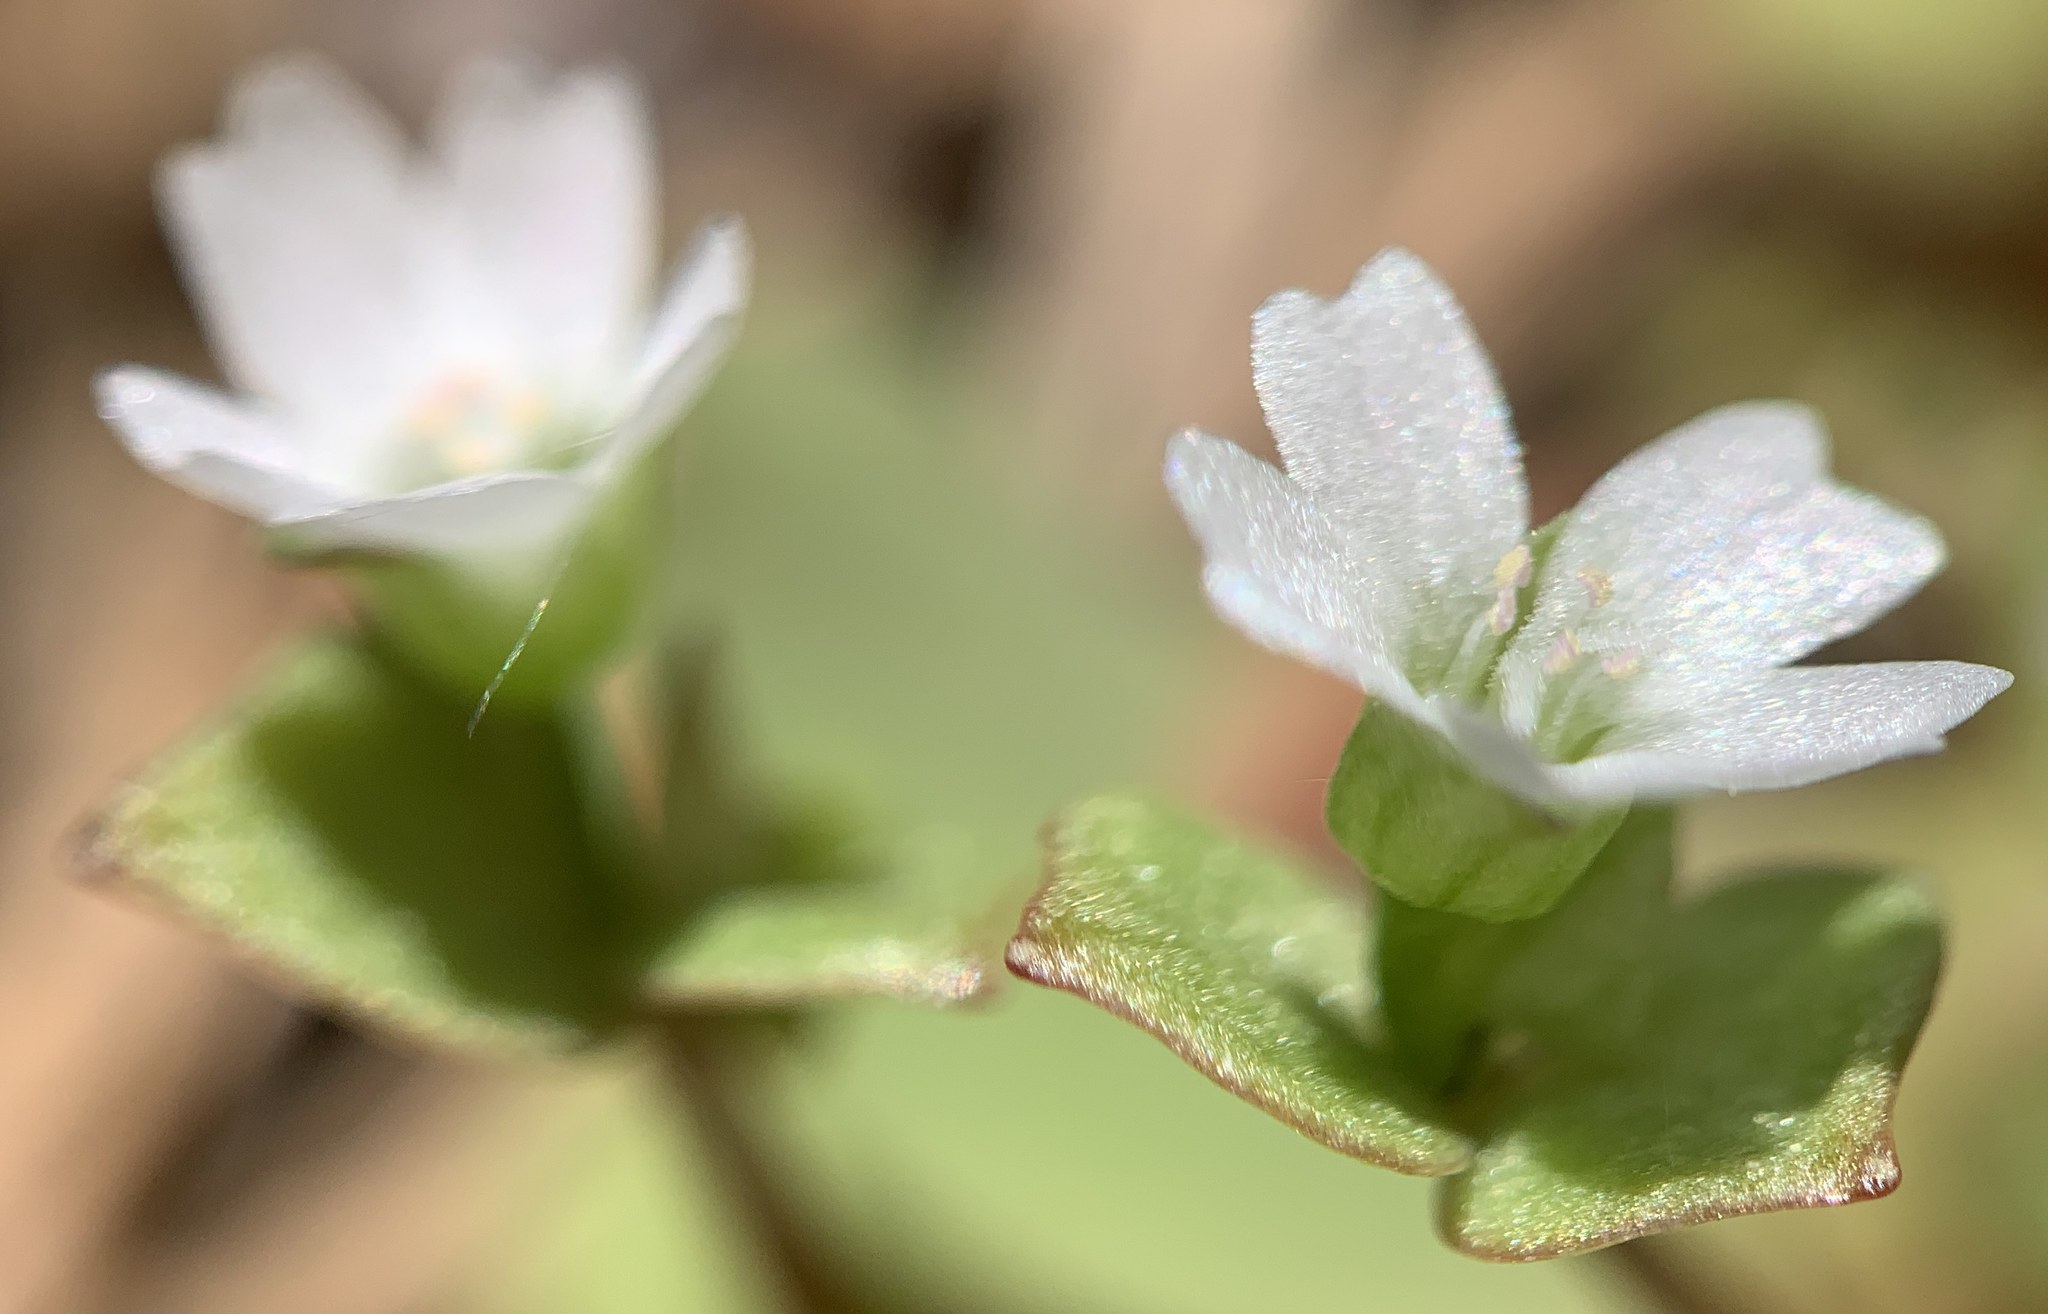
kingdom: Plantae
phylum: Tracheophyta
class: Magnoliopsida
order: Caryophyllales
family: Montiaceae
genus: Claytonia
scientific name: Claytonia rubra
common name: Erubescent miner's-lettuce
